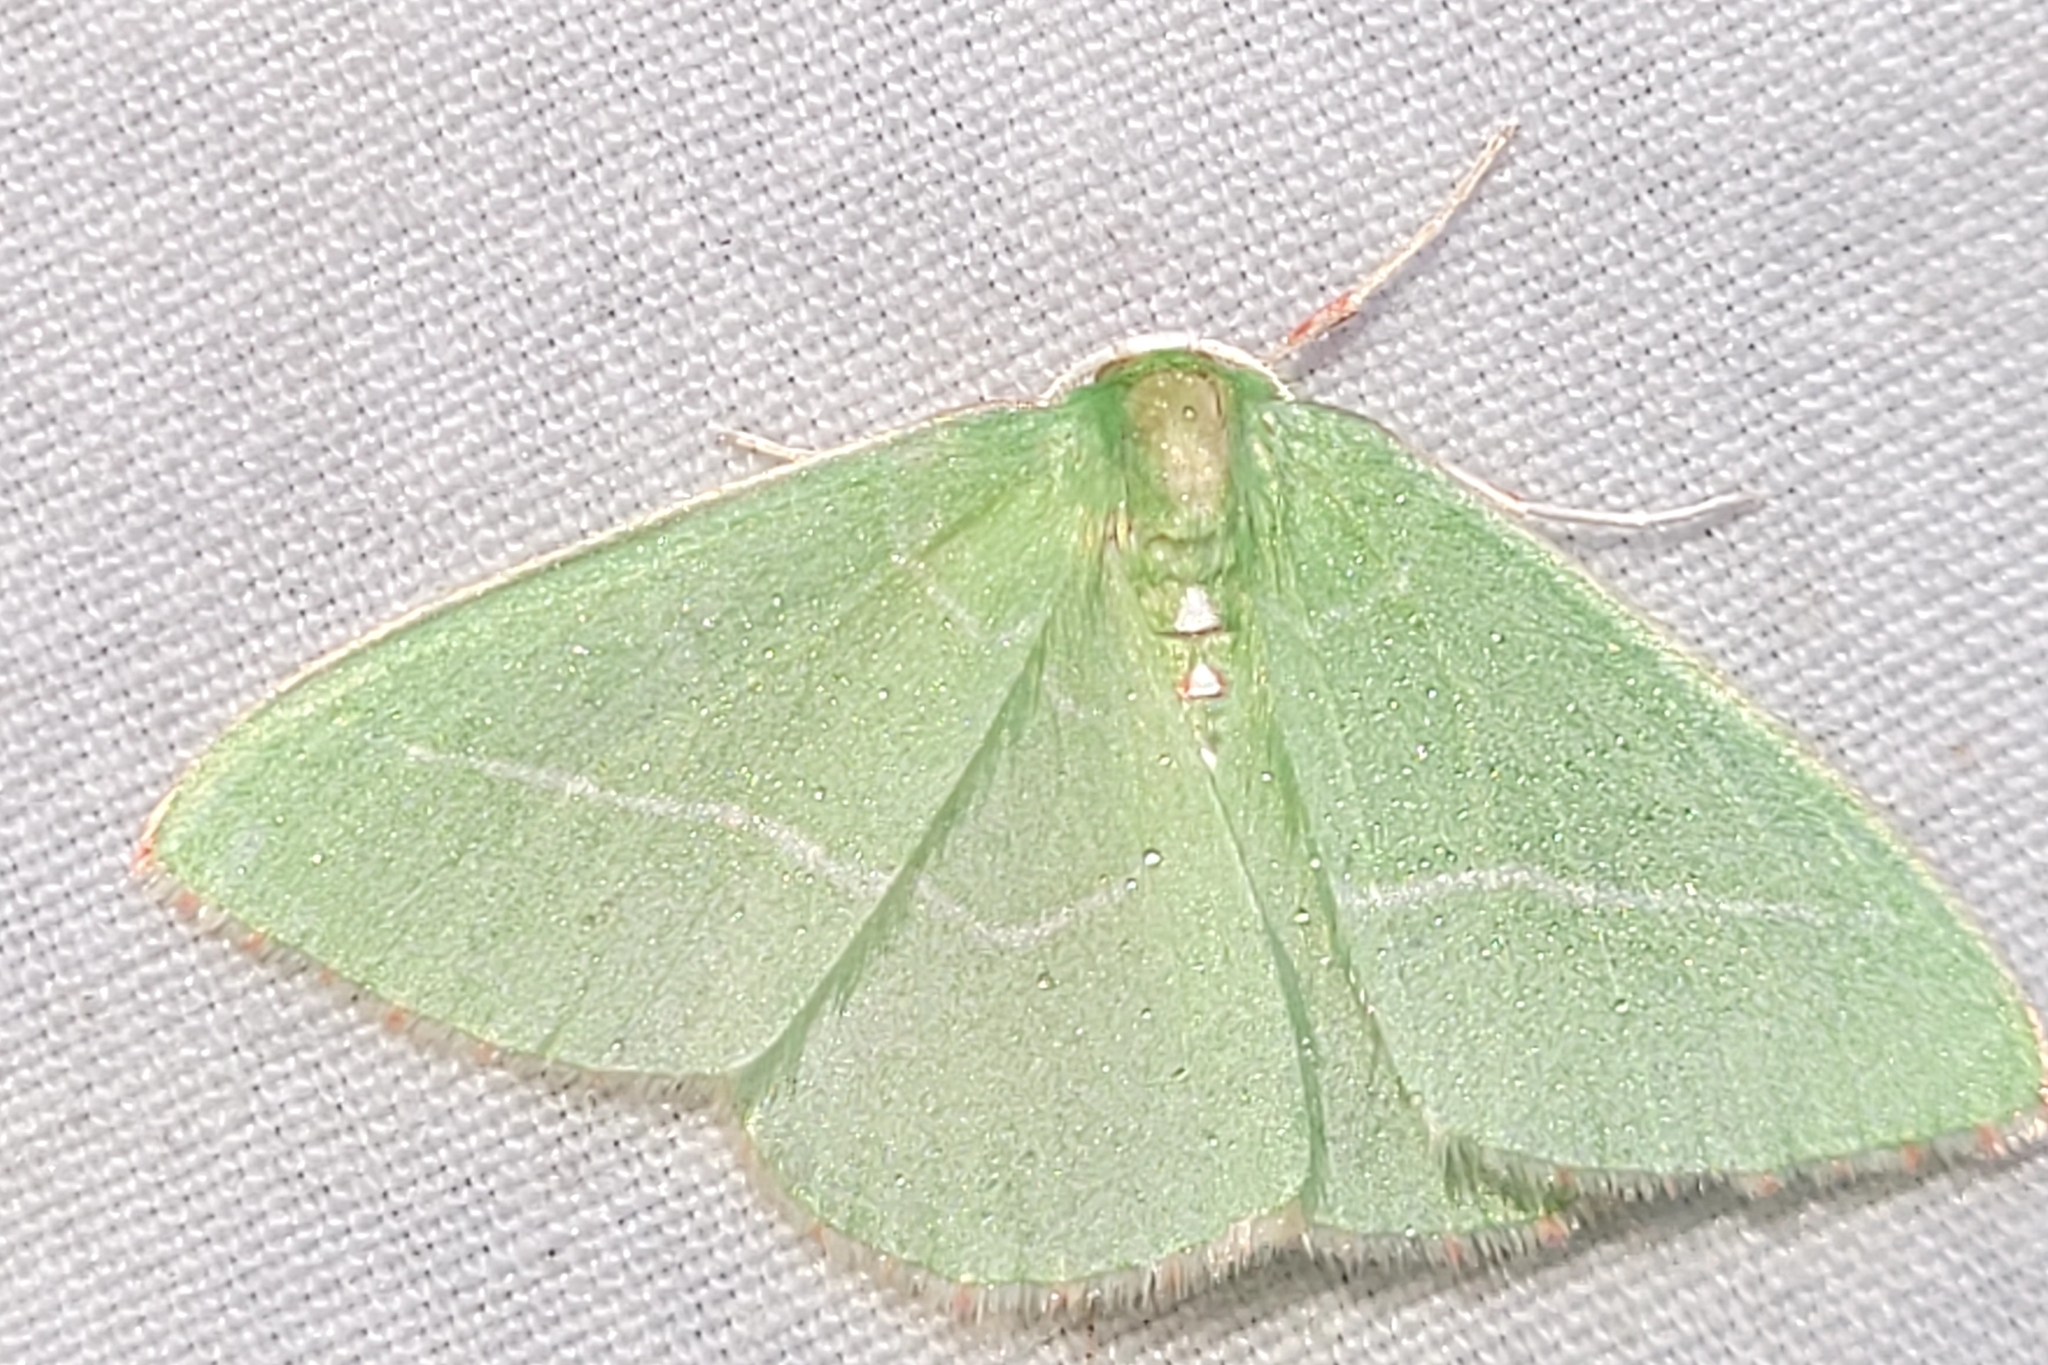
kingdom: Animalia
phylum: Arthropoda
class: Insecta
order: Lepidoptera
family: Geometridae
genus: Nemoria
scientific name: Nemoria unitaria
